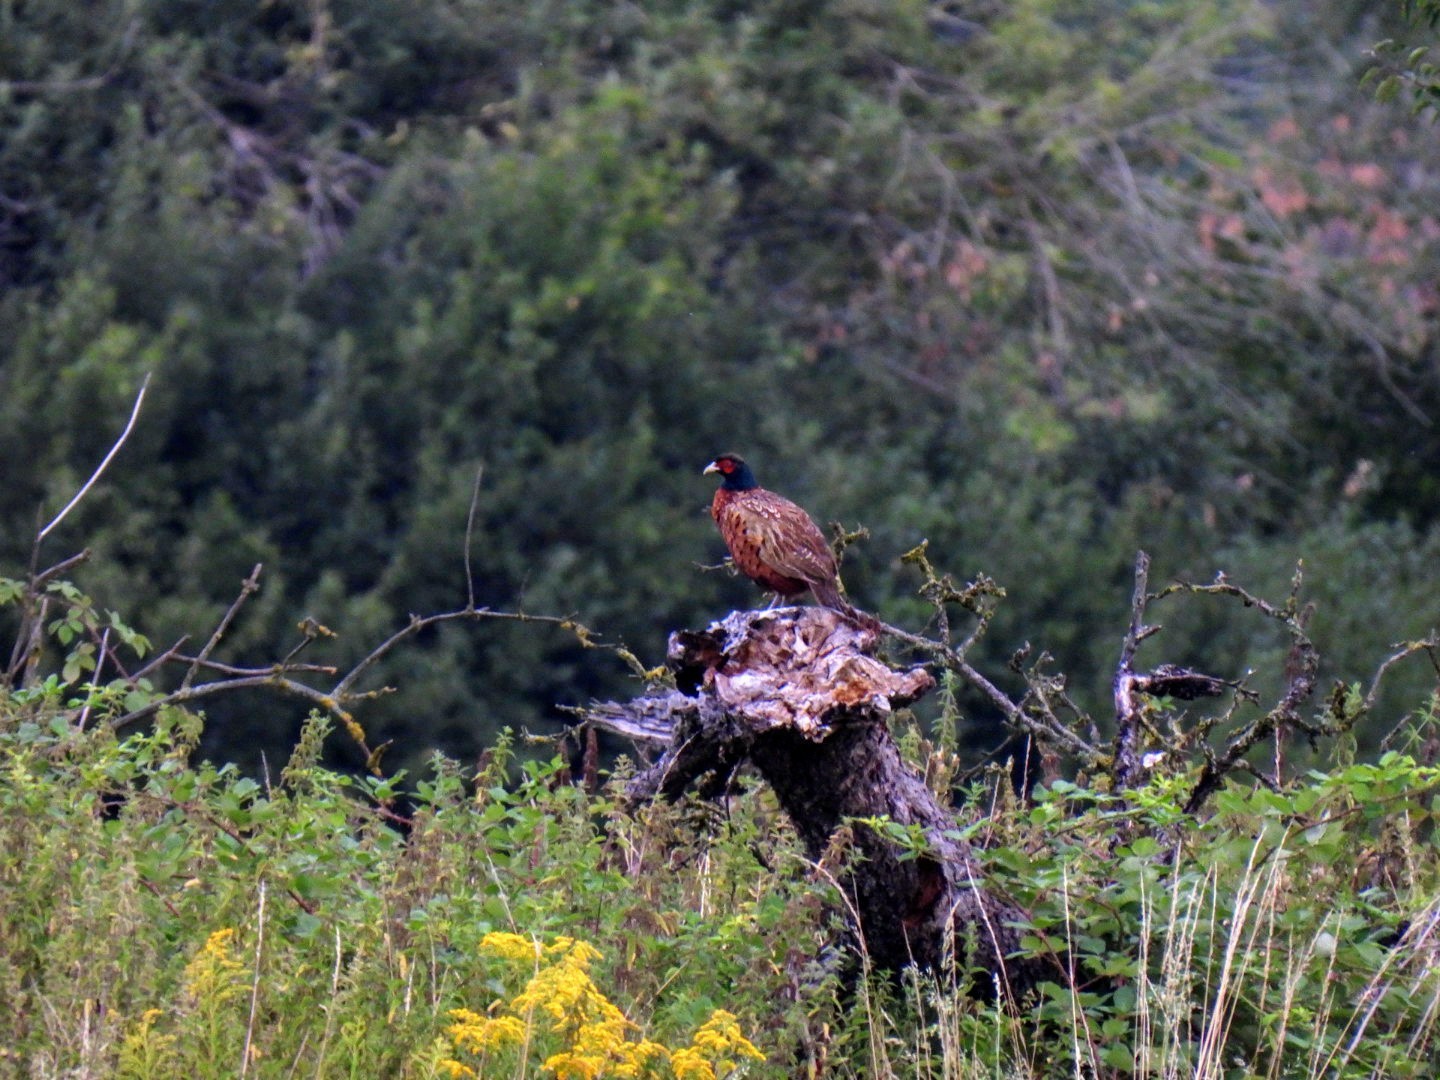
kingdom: Animalia
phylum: Chordata
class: Aves
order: Galliformes
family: Phasianidae
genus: Phasianus
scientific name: Phasianus colchicus
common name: Common pheasant
